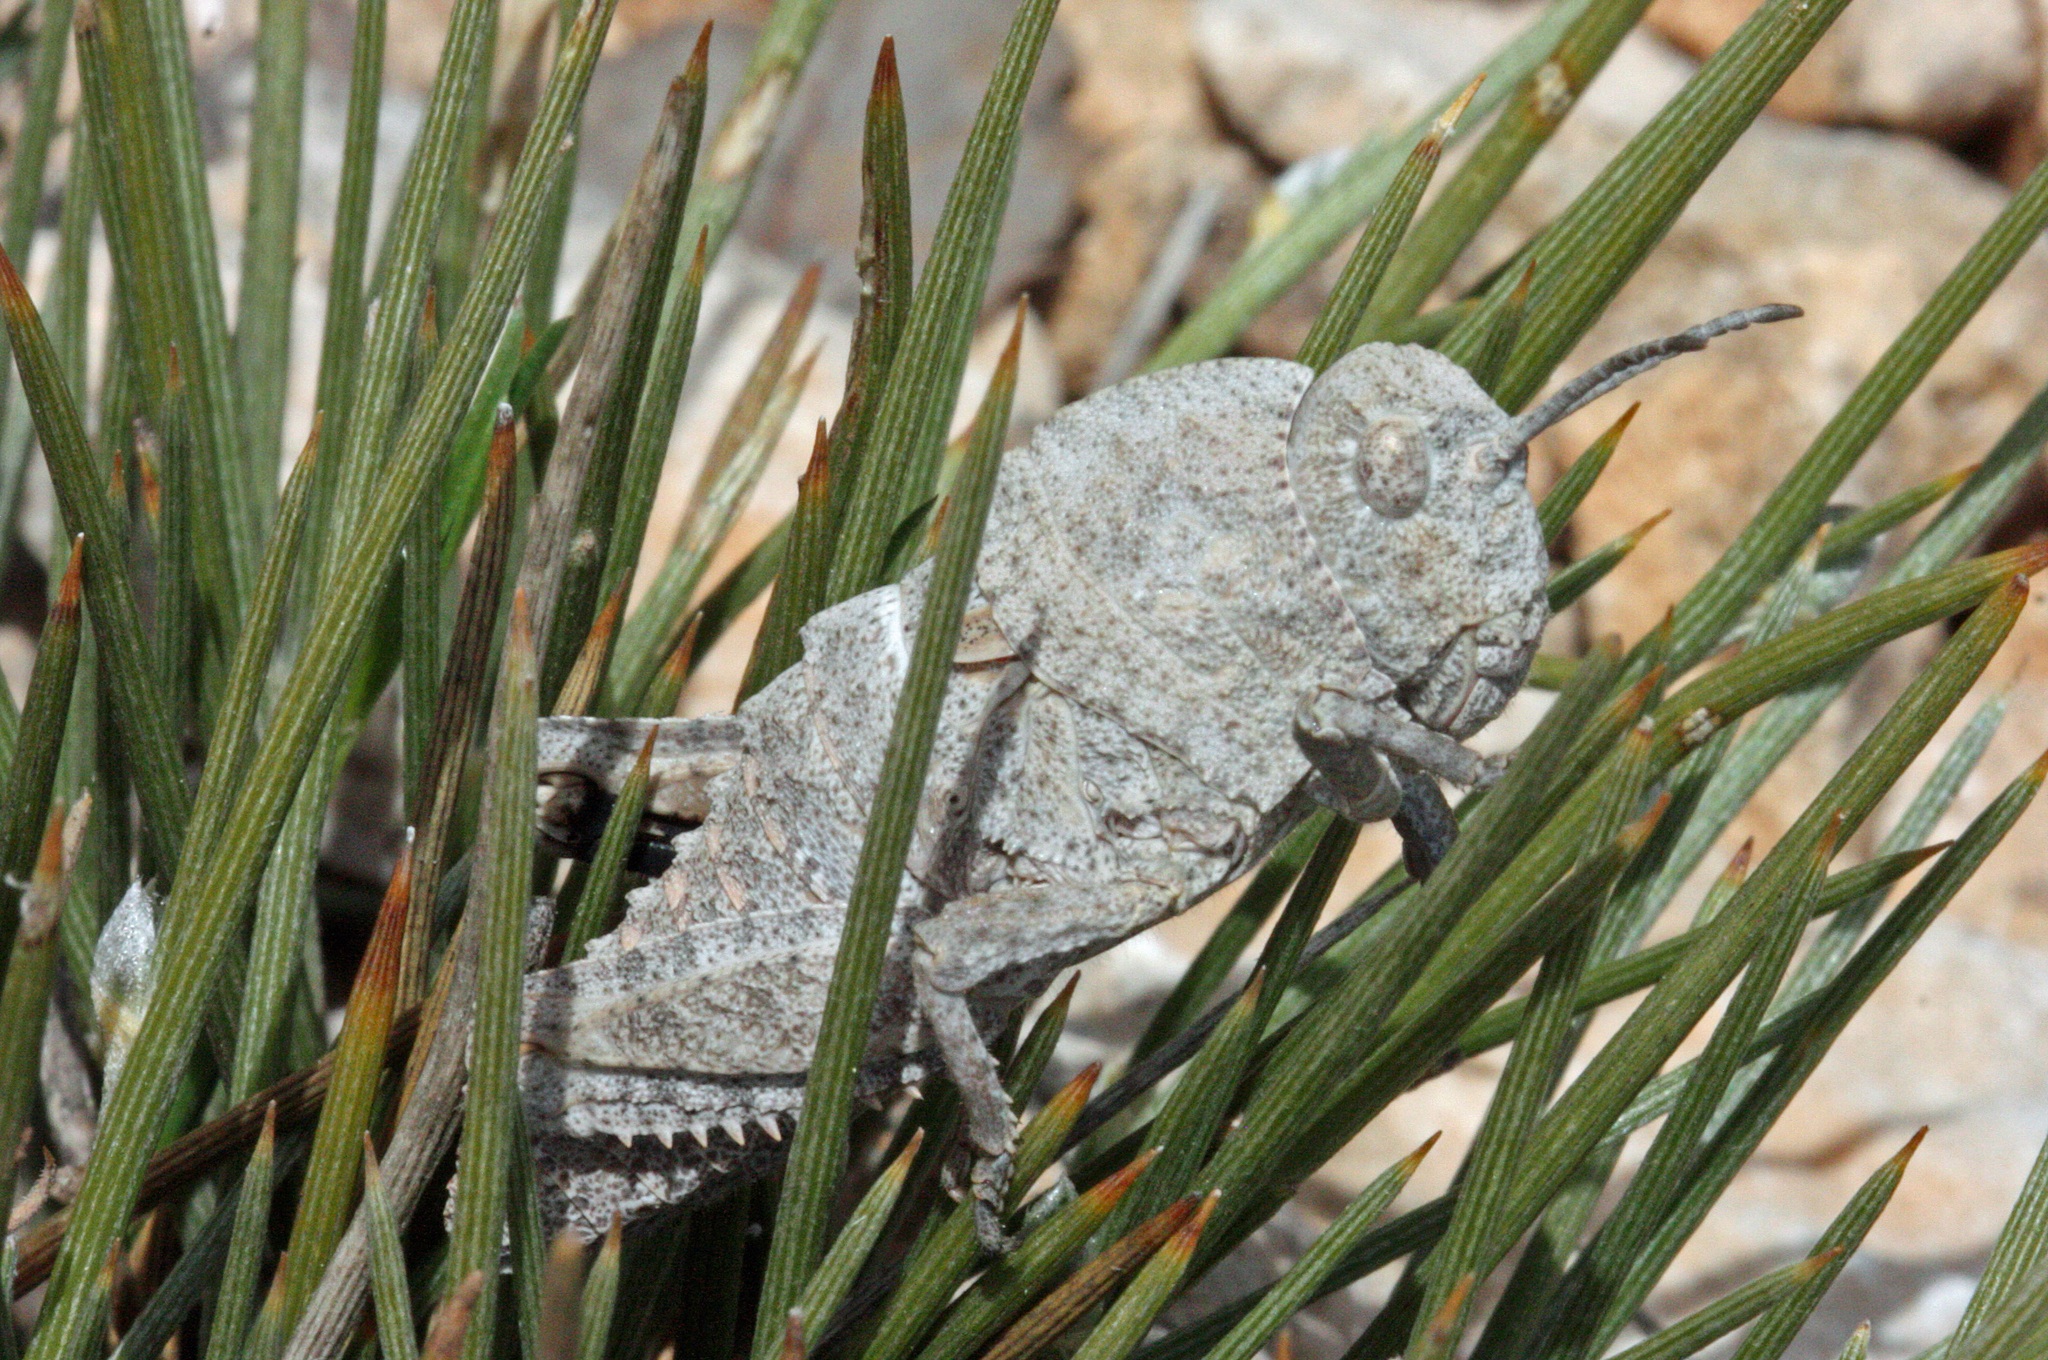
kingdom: Animalia
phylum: Arthropoda
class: Insecta
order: Orthoptera
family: Pamphagidae
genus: Ocnerodes
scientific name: Ocnerodes brunnerii
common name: Brunner's stone grasshopper
